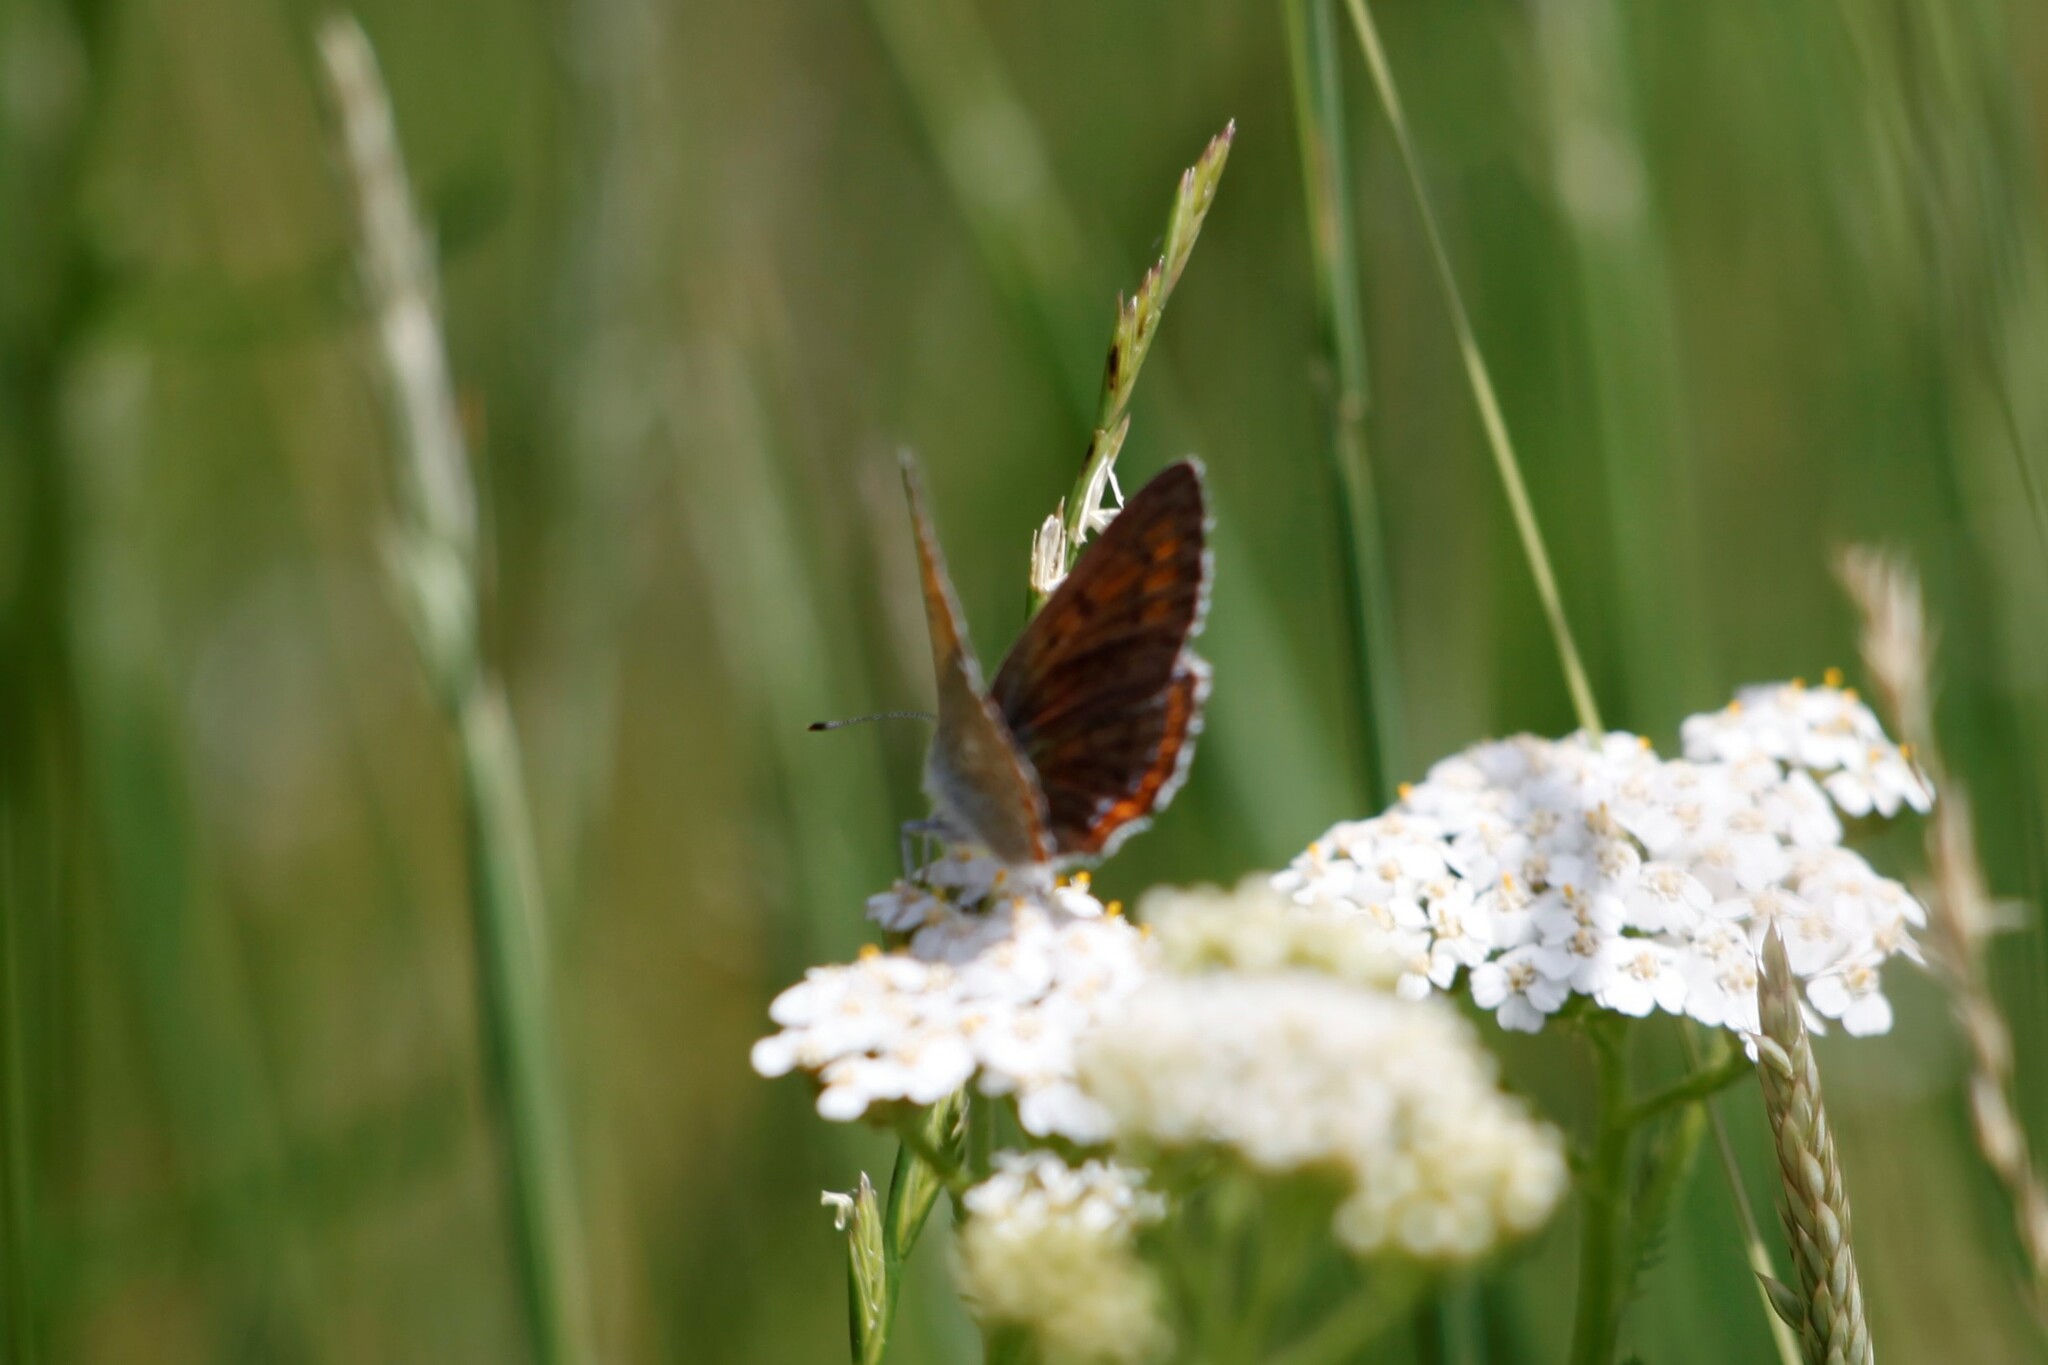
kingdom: Animalia
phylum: Arthropoda
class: Insecta
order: Lepidoptera
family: Lycaenidae
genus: Lycaena
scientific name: Lycaena alciphron
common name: Purple-shot copper
